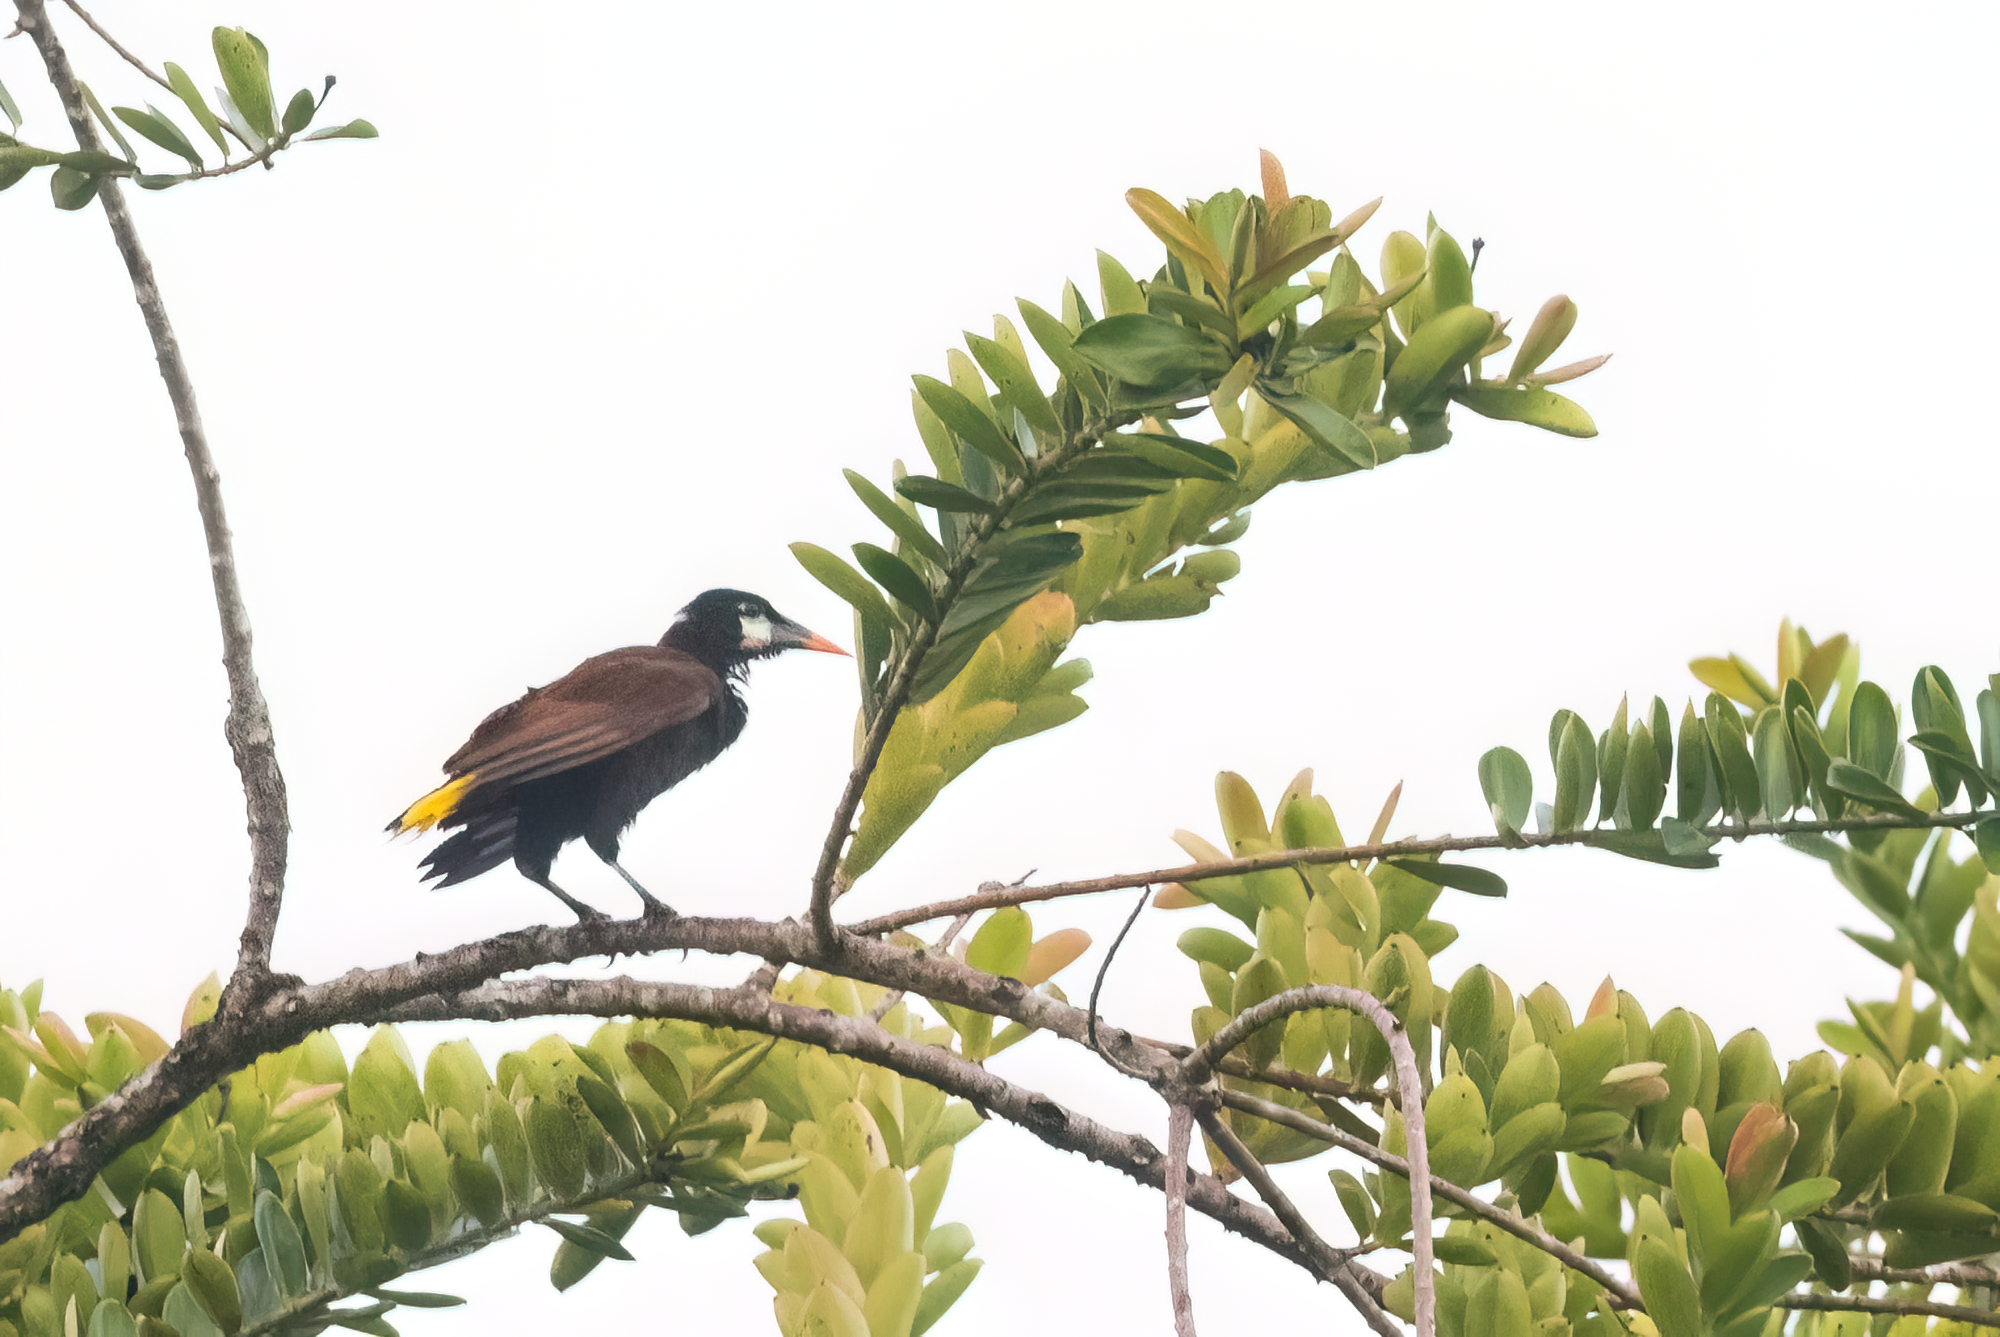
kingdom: Animalia
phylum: Chordata
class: Aves
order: Passeriformes
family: Icteridae
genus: Psarocolius
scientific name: Psarocolius montezuma
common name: Montezuma oropendola
